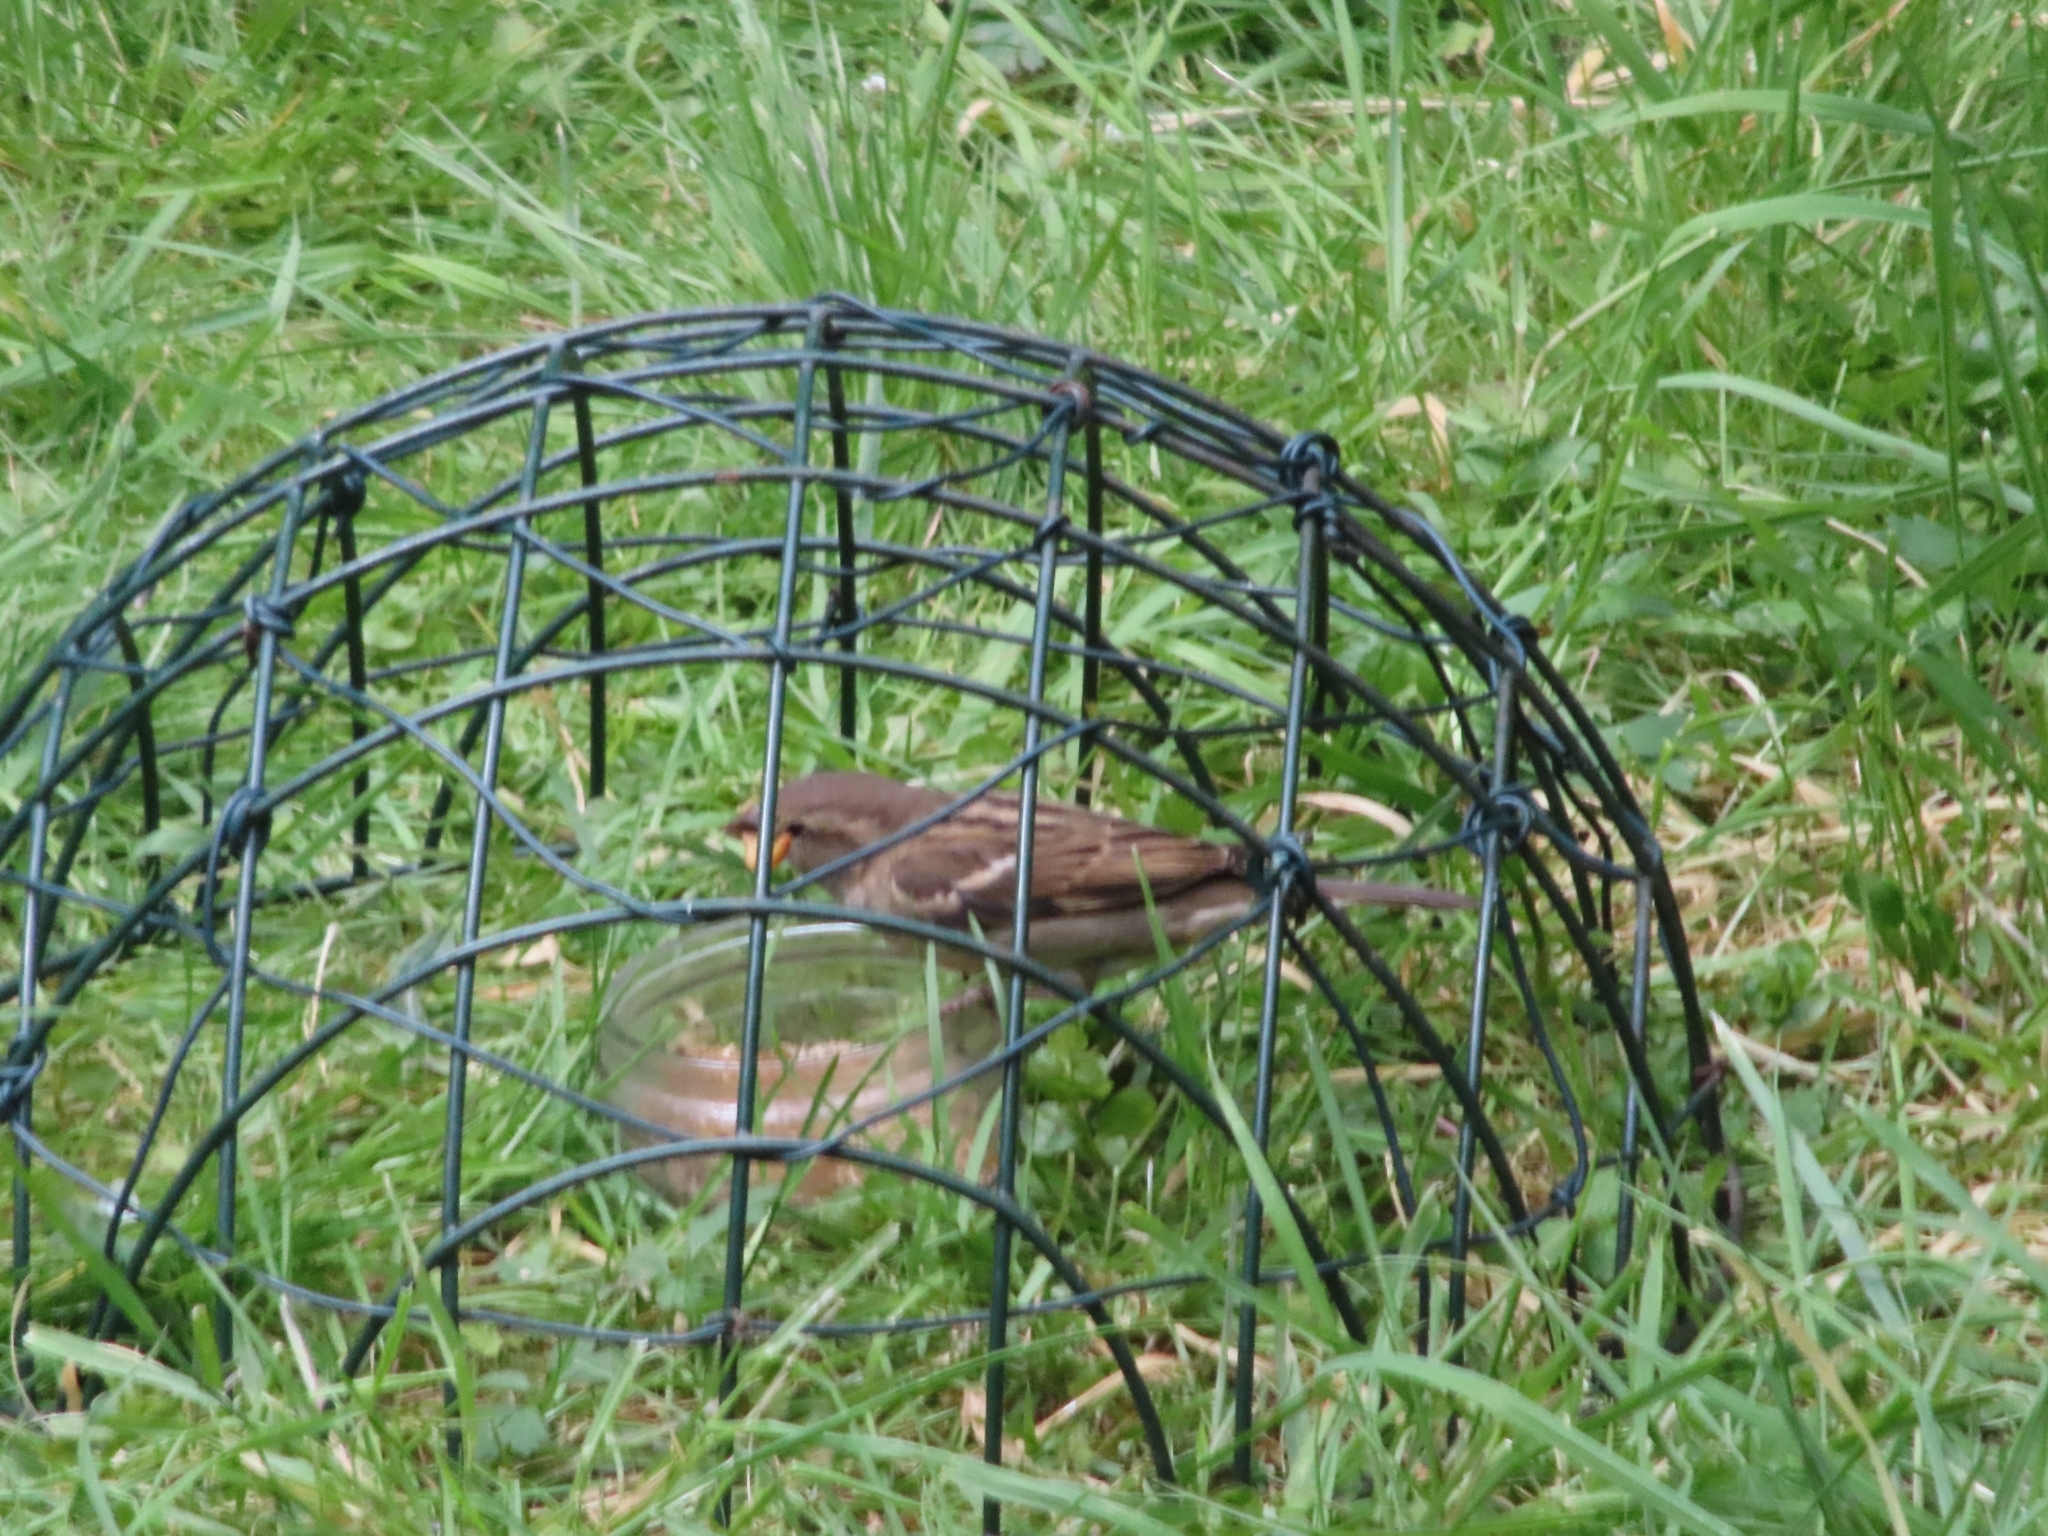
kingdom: Animalia
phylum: Chordata
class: Aves
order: Passeriformes
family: Passeridae
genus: Passer
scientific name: Passer domesticus
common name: House sparrow
